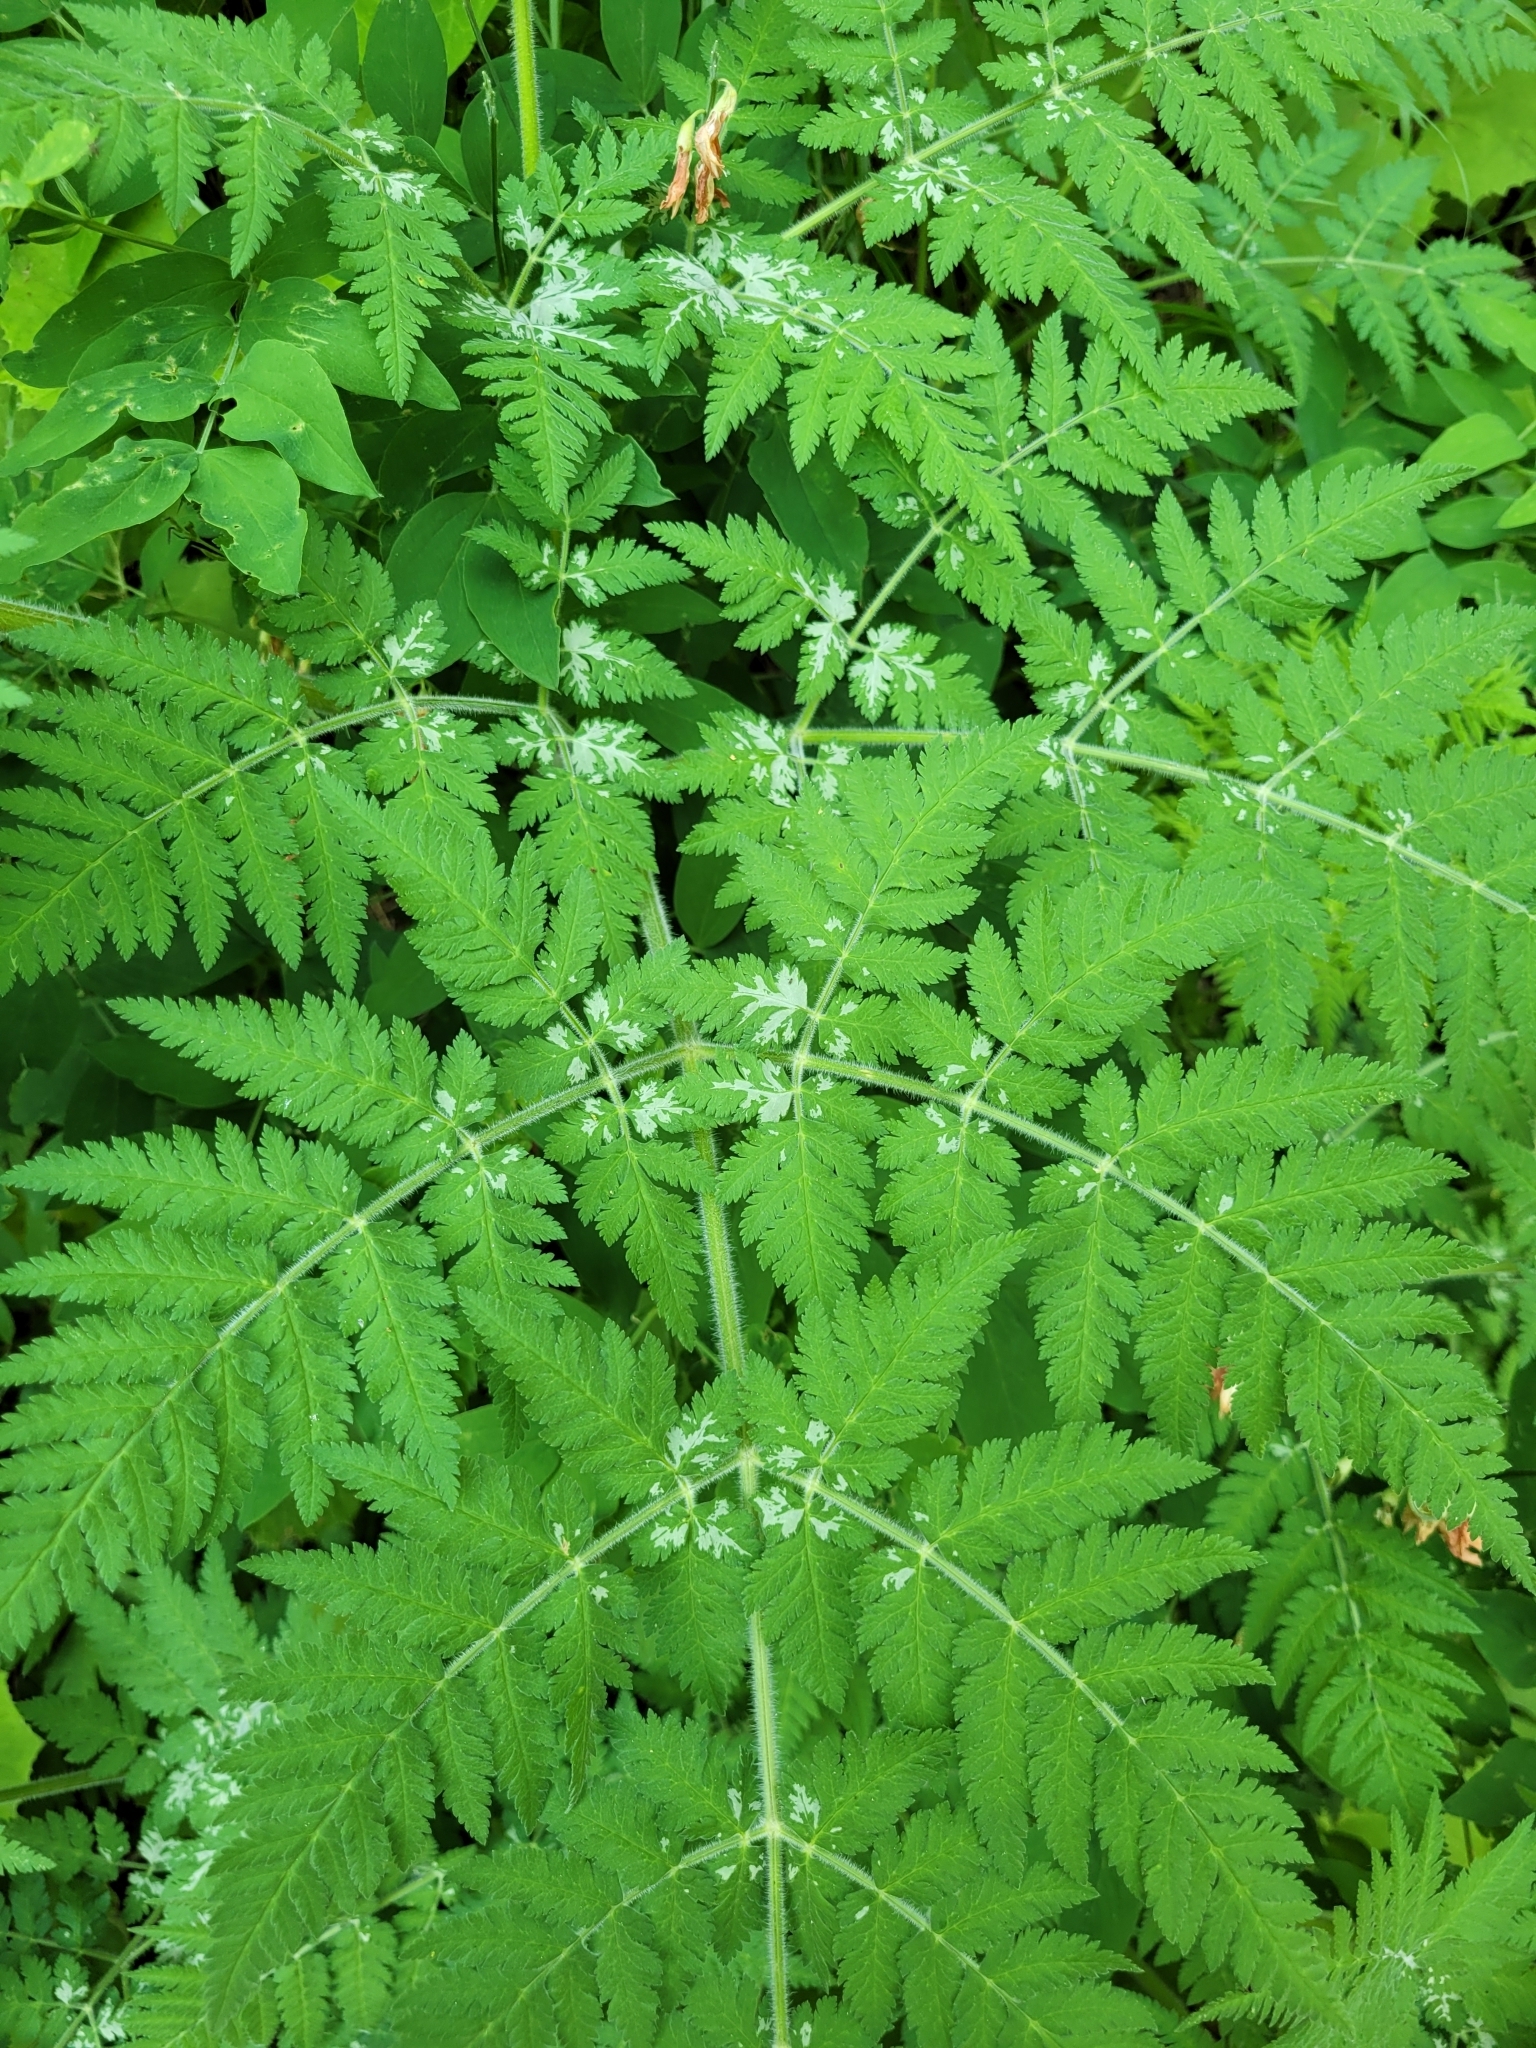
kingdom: Plantae
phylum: Tracheophyta
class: Magnoliopsida
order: Apiales
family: Apiaceae
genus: Myrrhis
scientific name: Myrrhis odorata
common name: Sweet cicely
